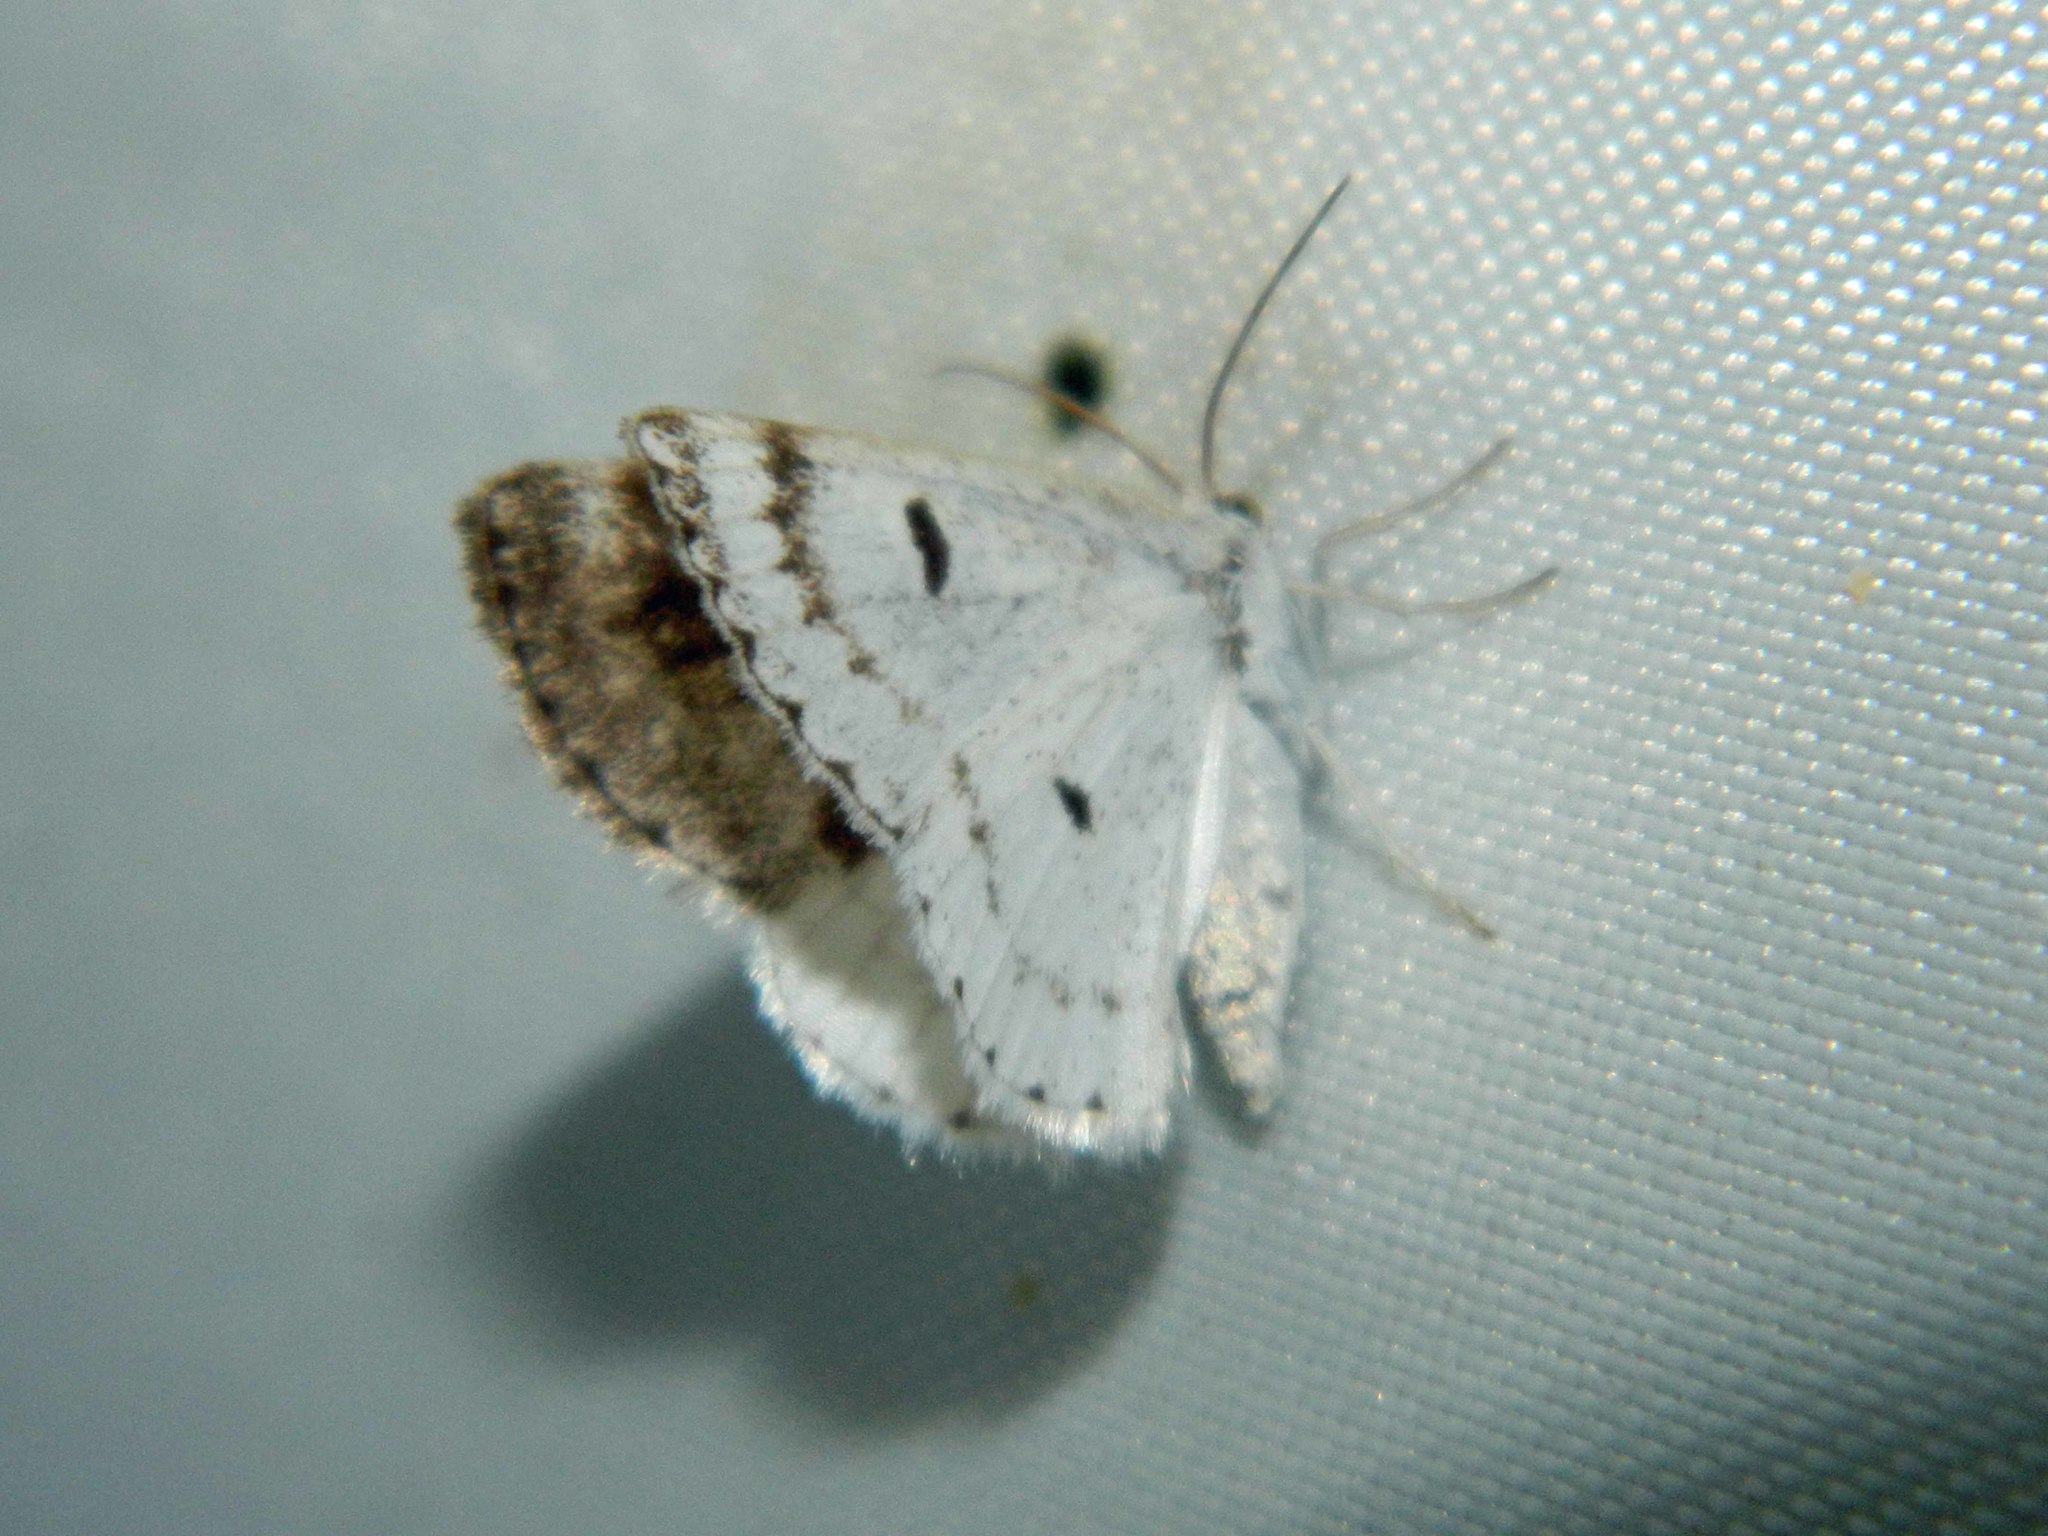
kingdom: Animalia
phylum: Arthropoda
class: Insecta
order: Lepidoptera
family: Geometridae
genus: Lomographa
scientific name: Lomographa semiclarata
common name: Bluish spring moth
